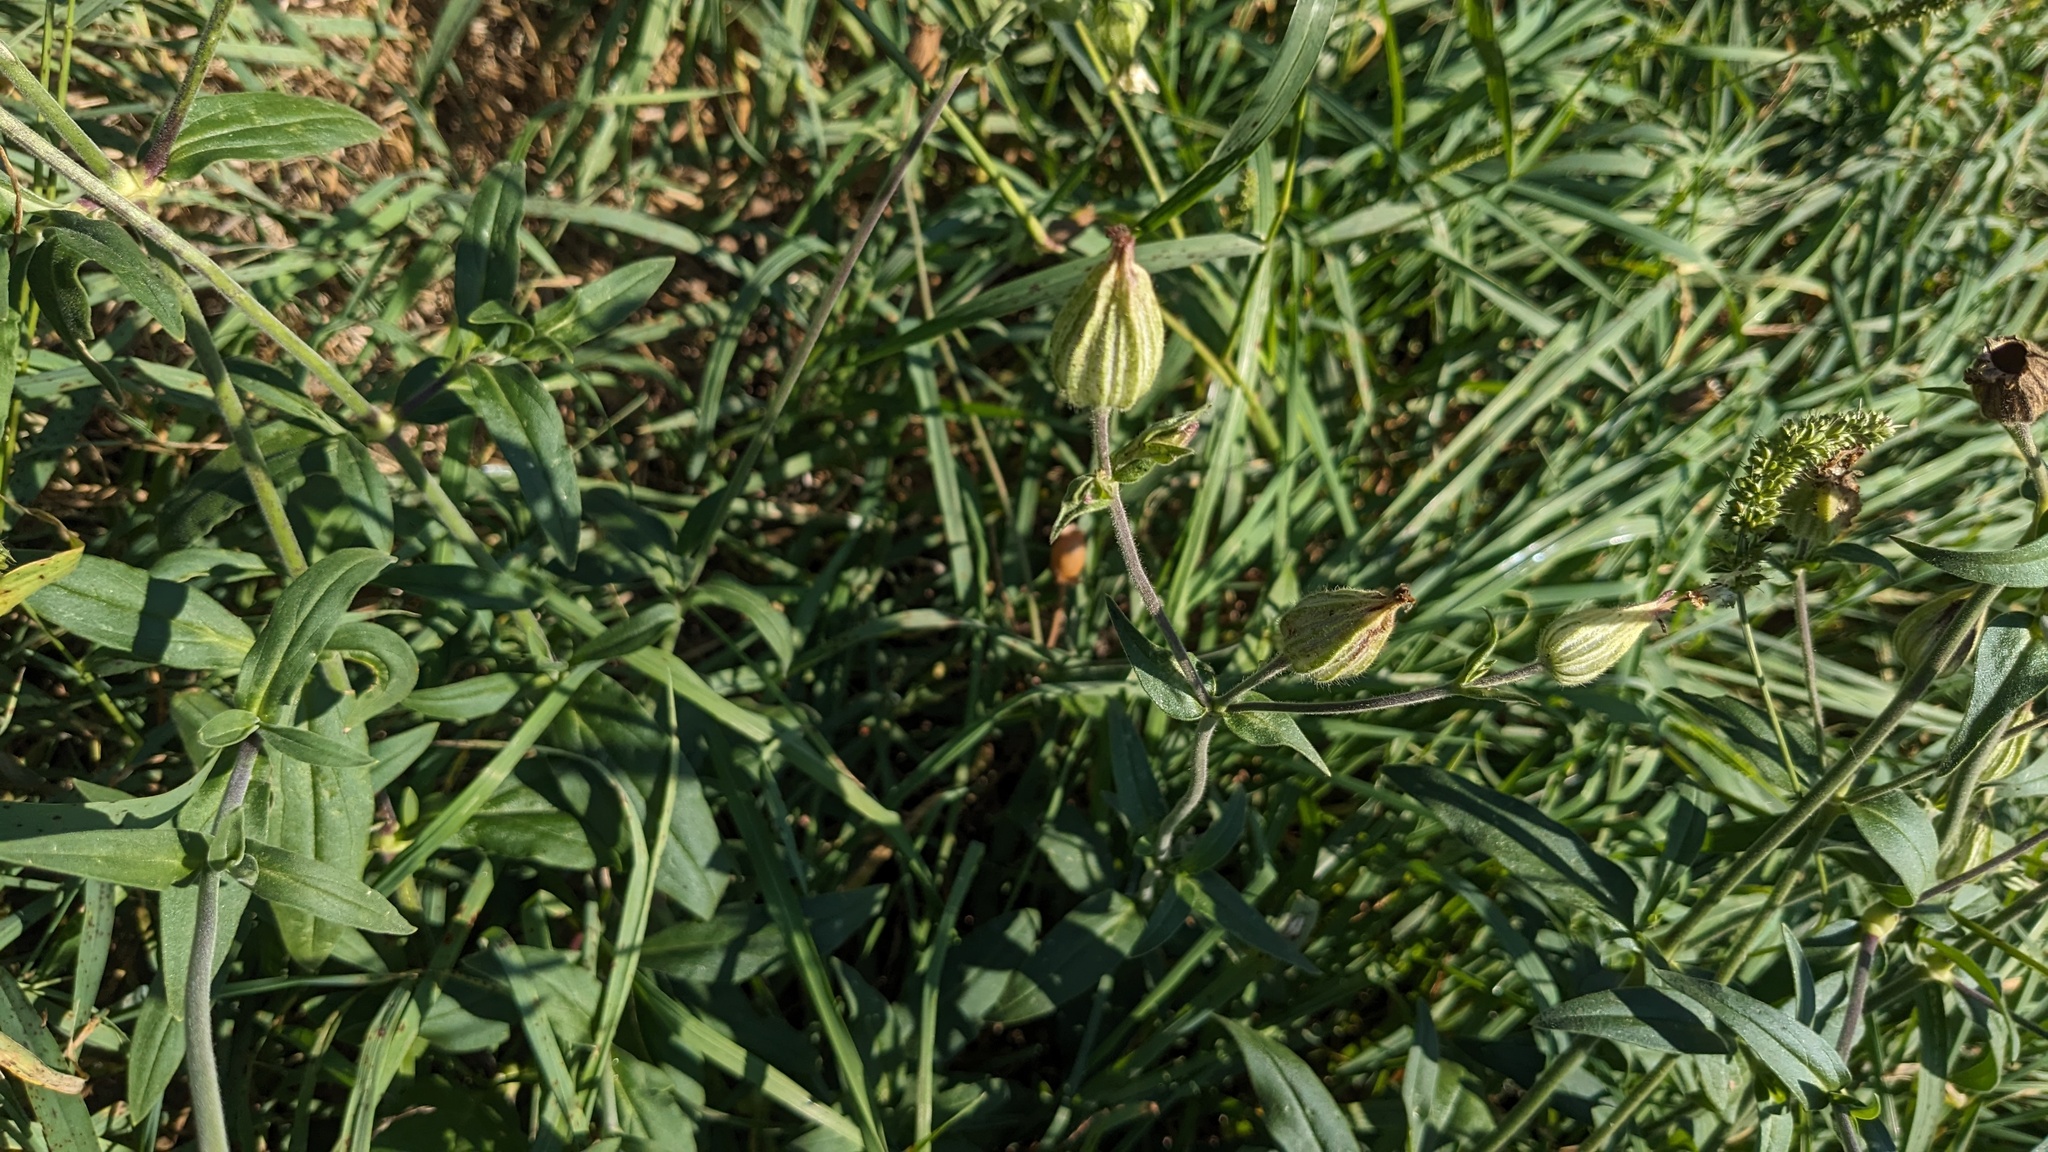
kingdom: Plantae
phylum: Tracheophyta
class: Magnoliopsida
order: Caryophyllales
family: Caryophyllaceae
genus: Silene
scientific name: Silene latifolia
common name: White campion
